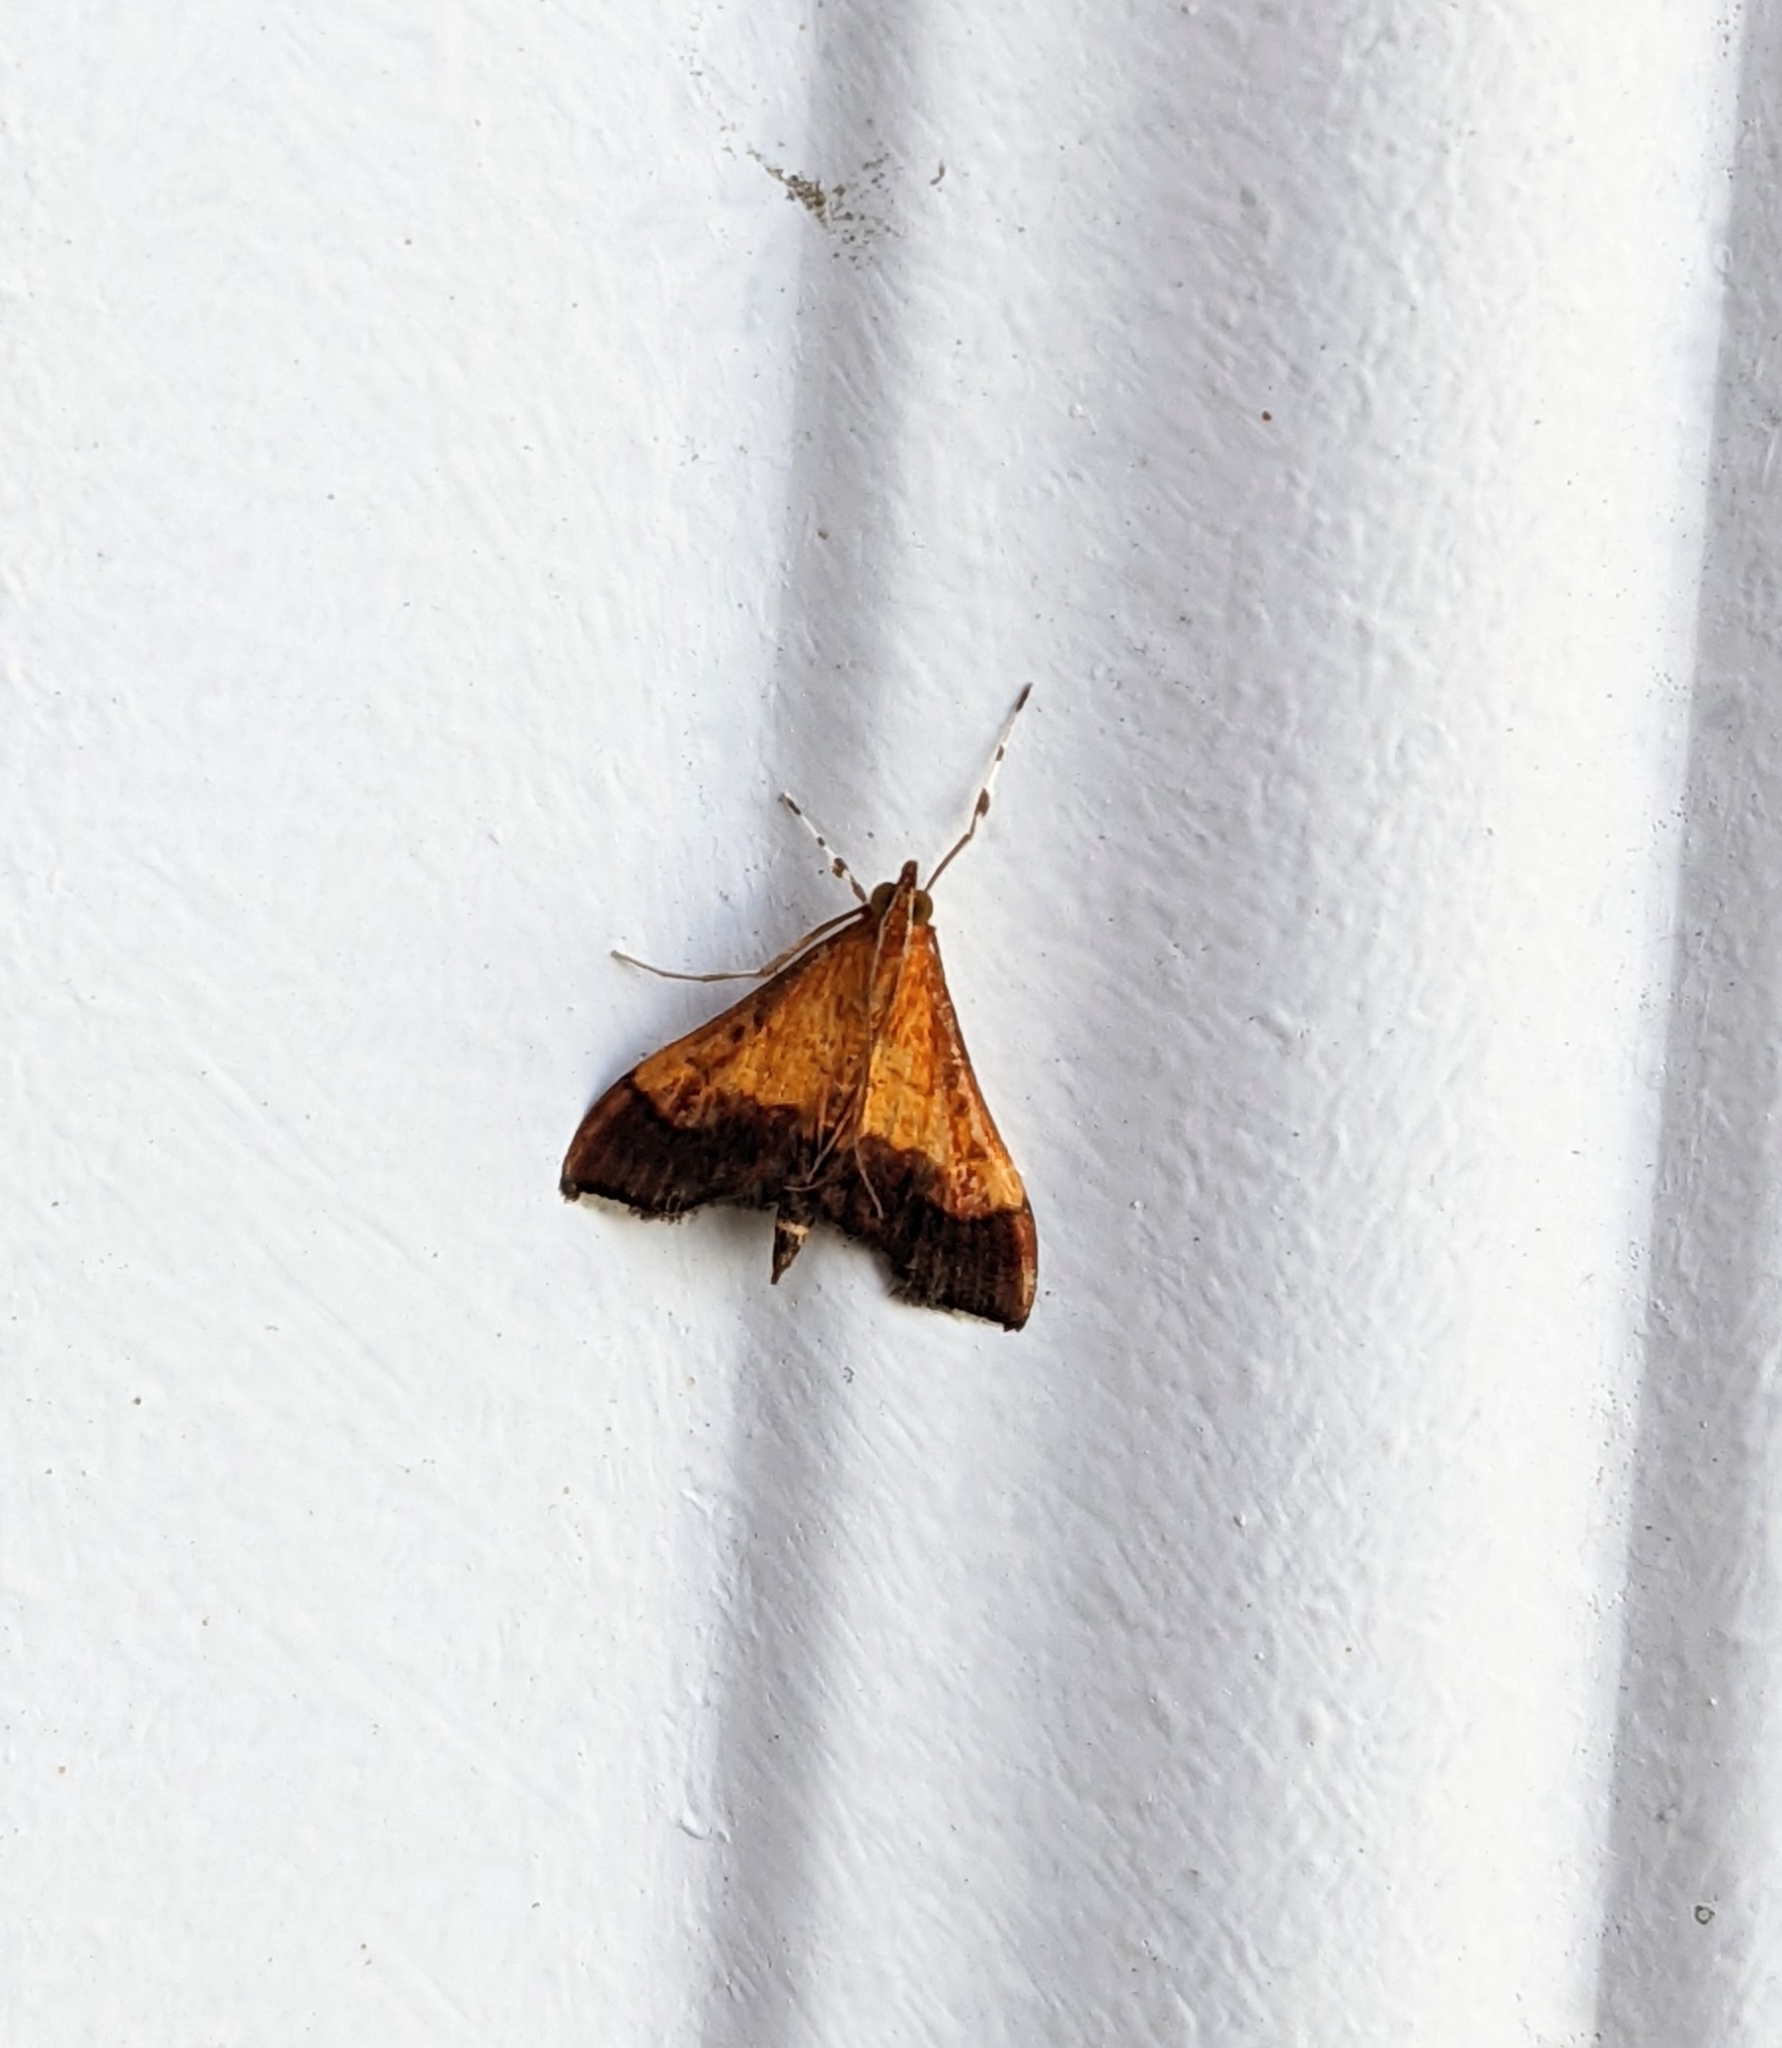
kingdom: Animalia
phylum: Arthropoda
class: Insecta
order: Lepidoptera
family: Crambidae
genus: Pyrausta
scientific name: Pyrausta bicoloralis
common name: Bicolored pyrausta moth
